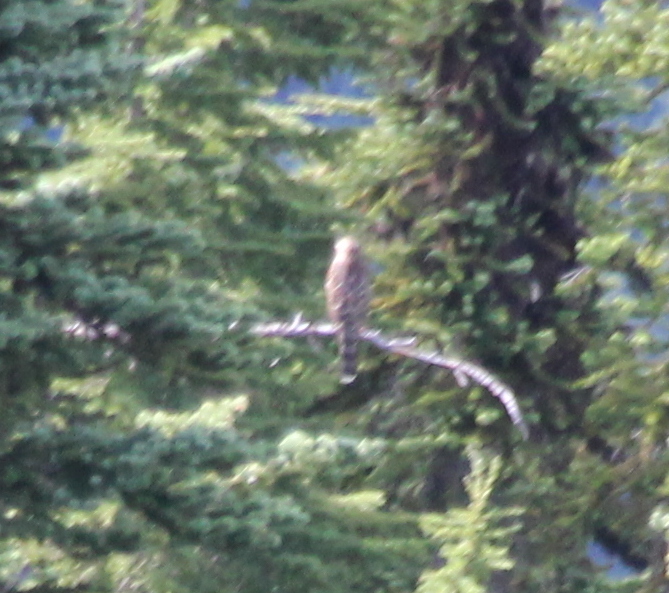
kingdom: Animalia
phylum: Chordata
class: Aves
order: Accipitriformes
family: Accipitridae
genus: Accipiter
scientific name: Accipiter cooperii
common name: Cooper's hawk
